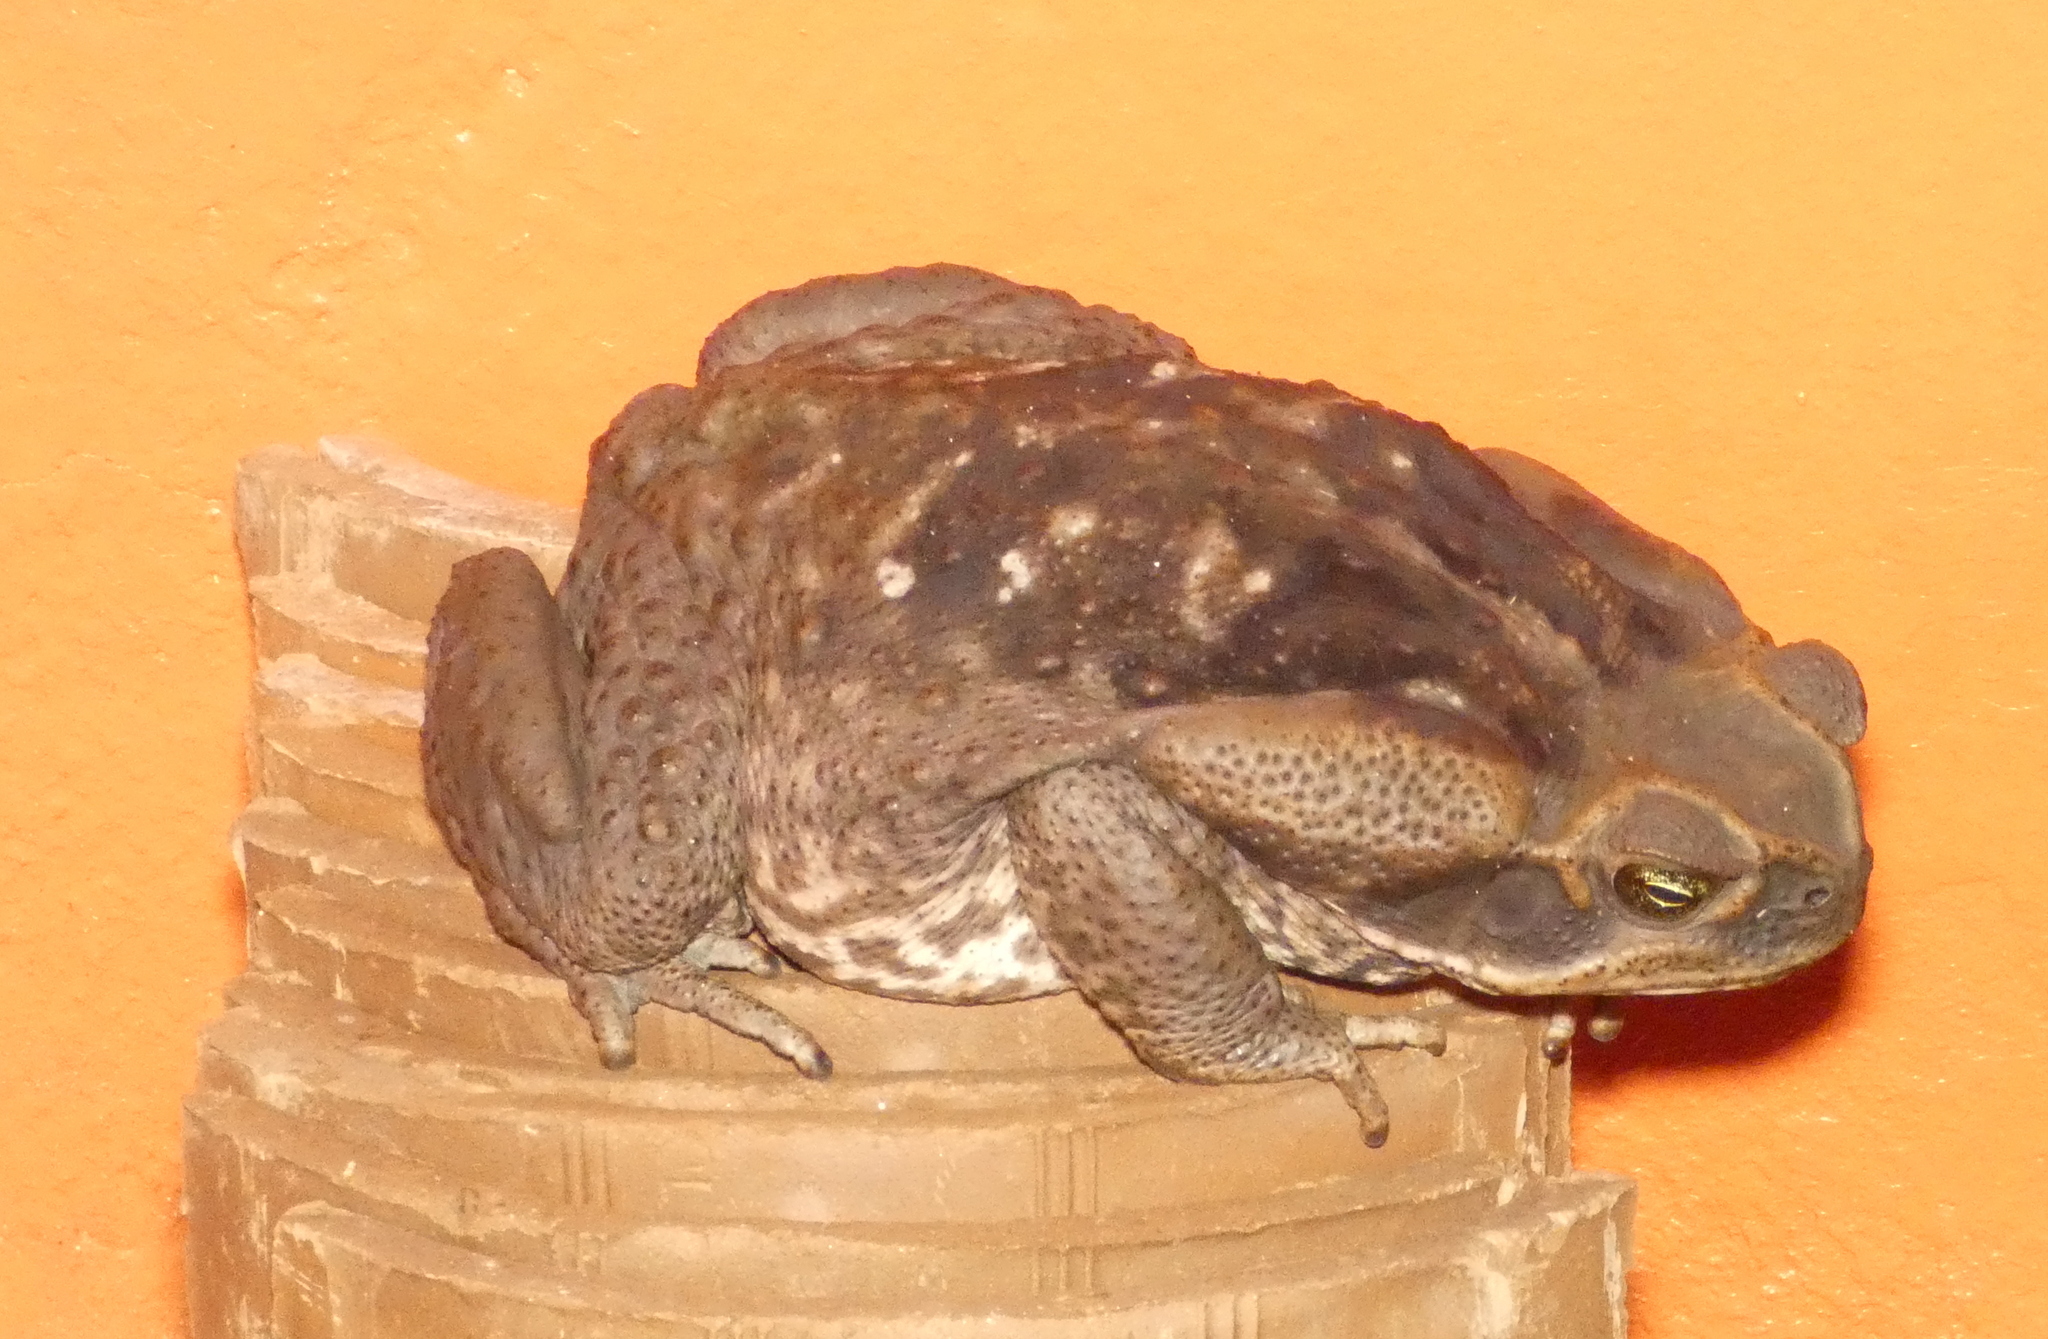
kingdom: Animalia
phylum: Chordata
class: Amphibia
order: Anura
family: Bufonidae
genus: Rhinella
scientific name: Rhinella diptycha
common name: Cope's toad
